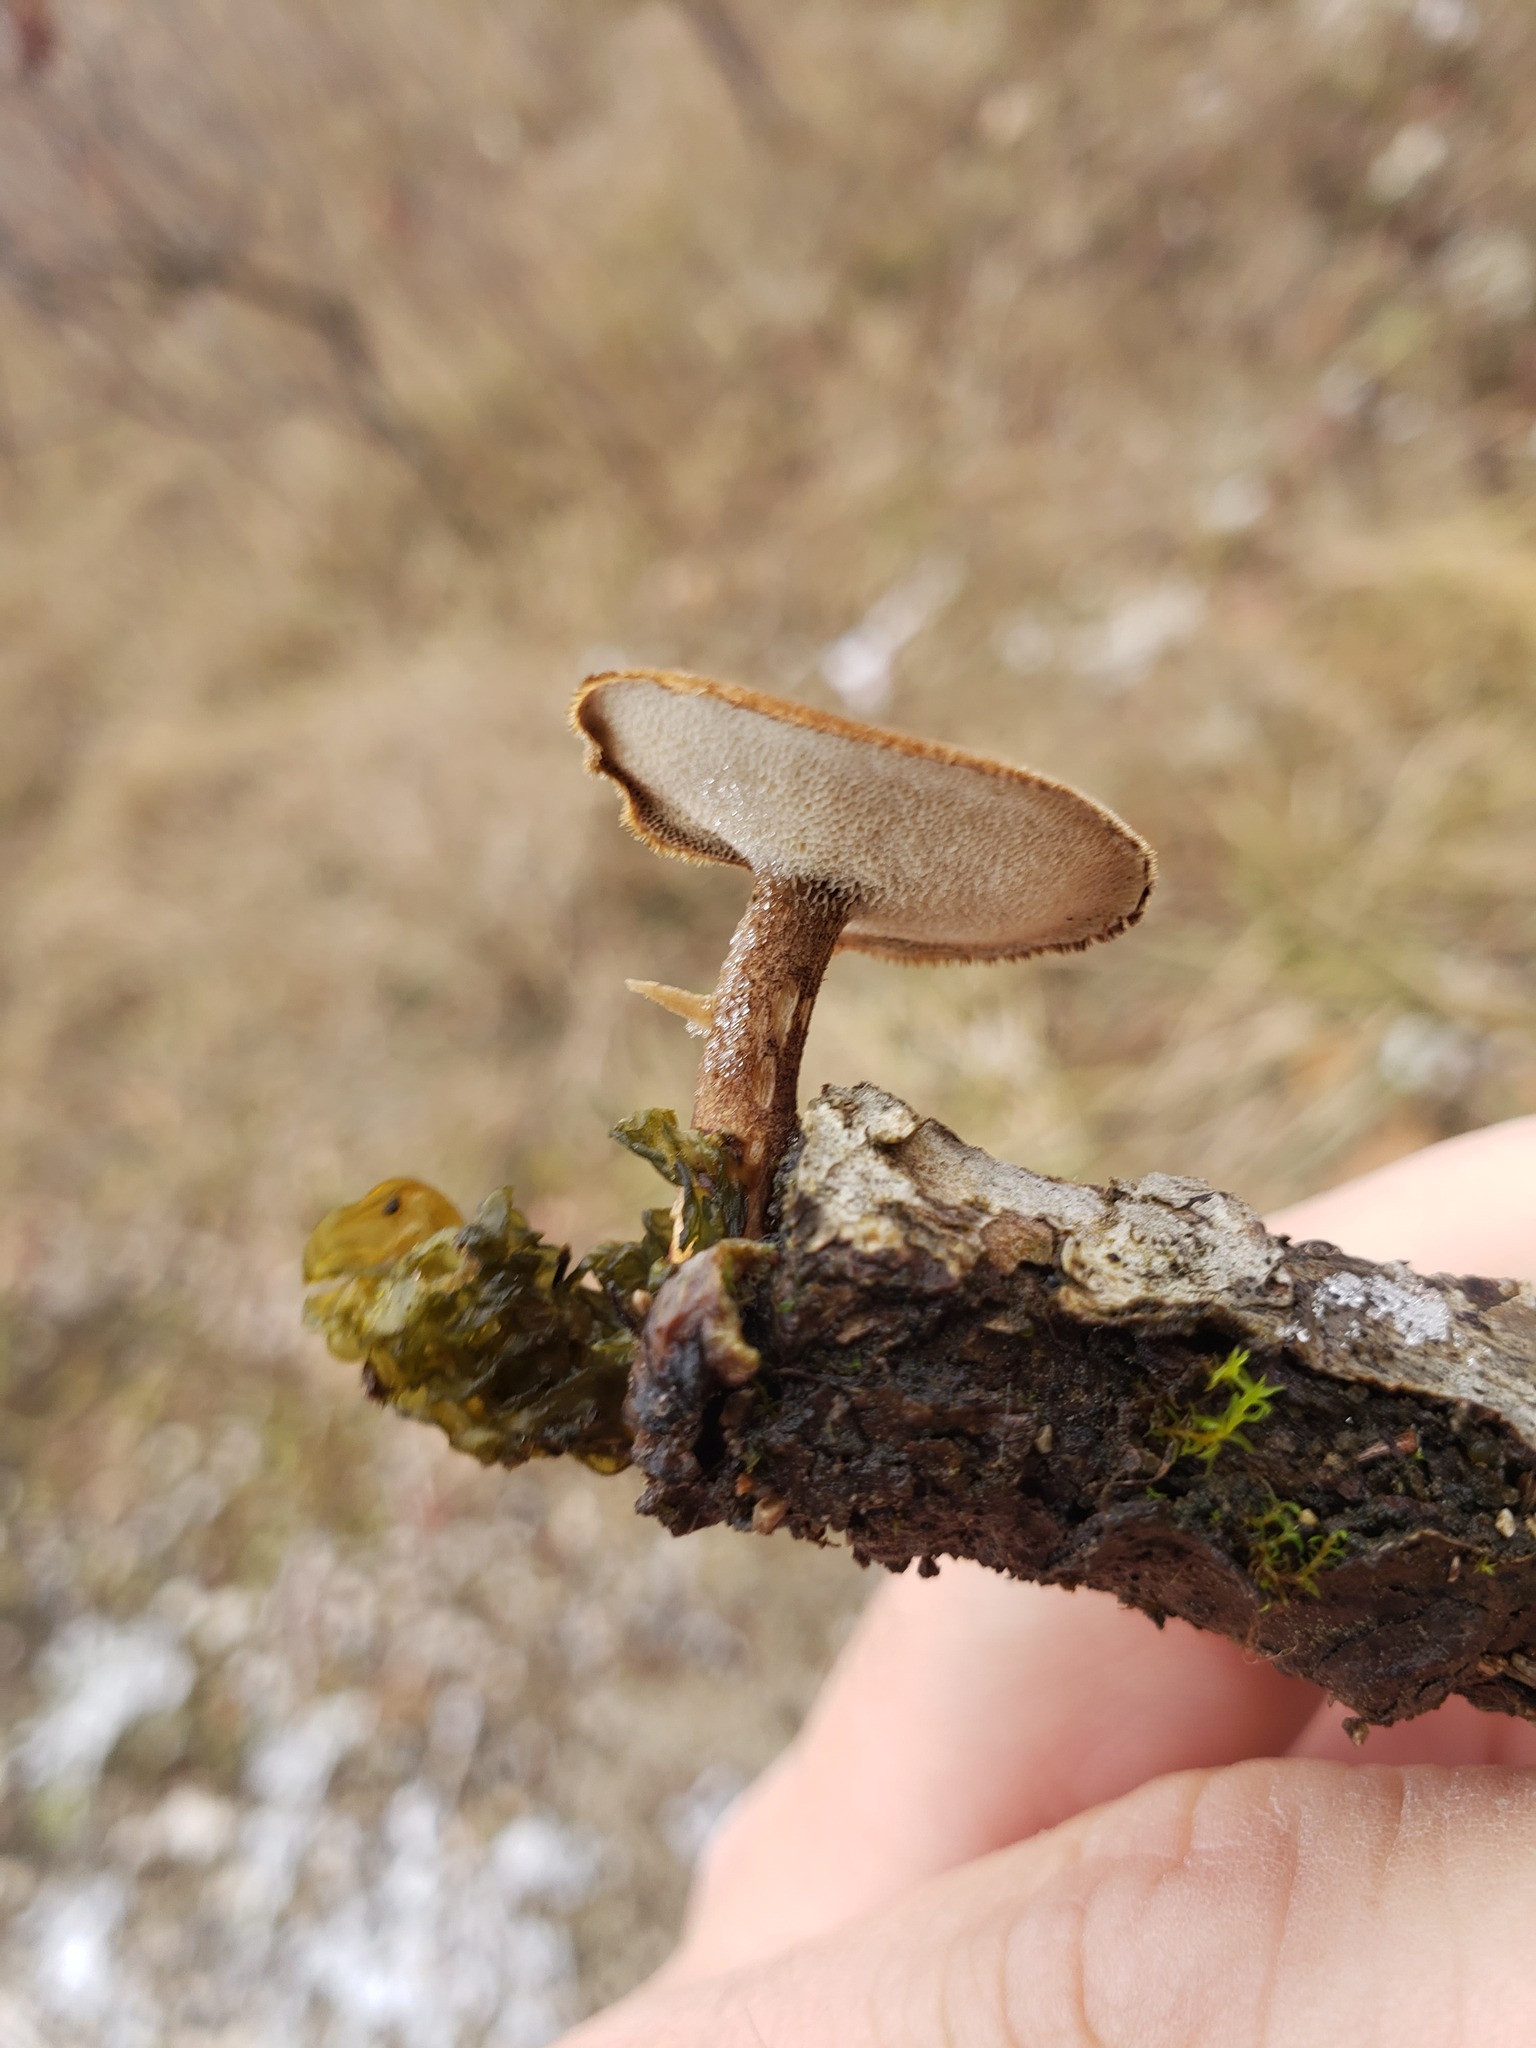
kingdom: Fungi
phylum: Basidiomycota
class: Agaricomycetes
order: Polyporales
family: Polyporaceae
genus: Lentinus
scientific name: Lentinus brumalis
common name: Winter polypore
